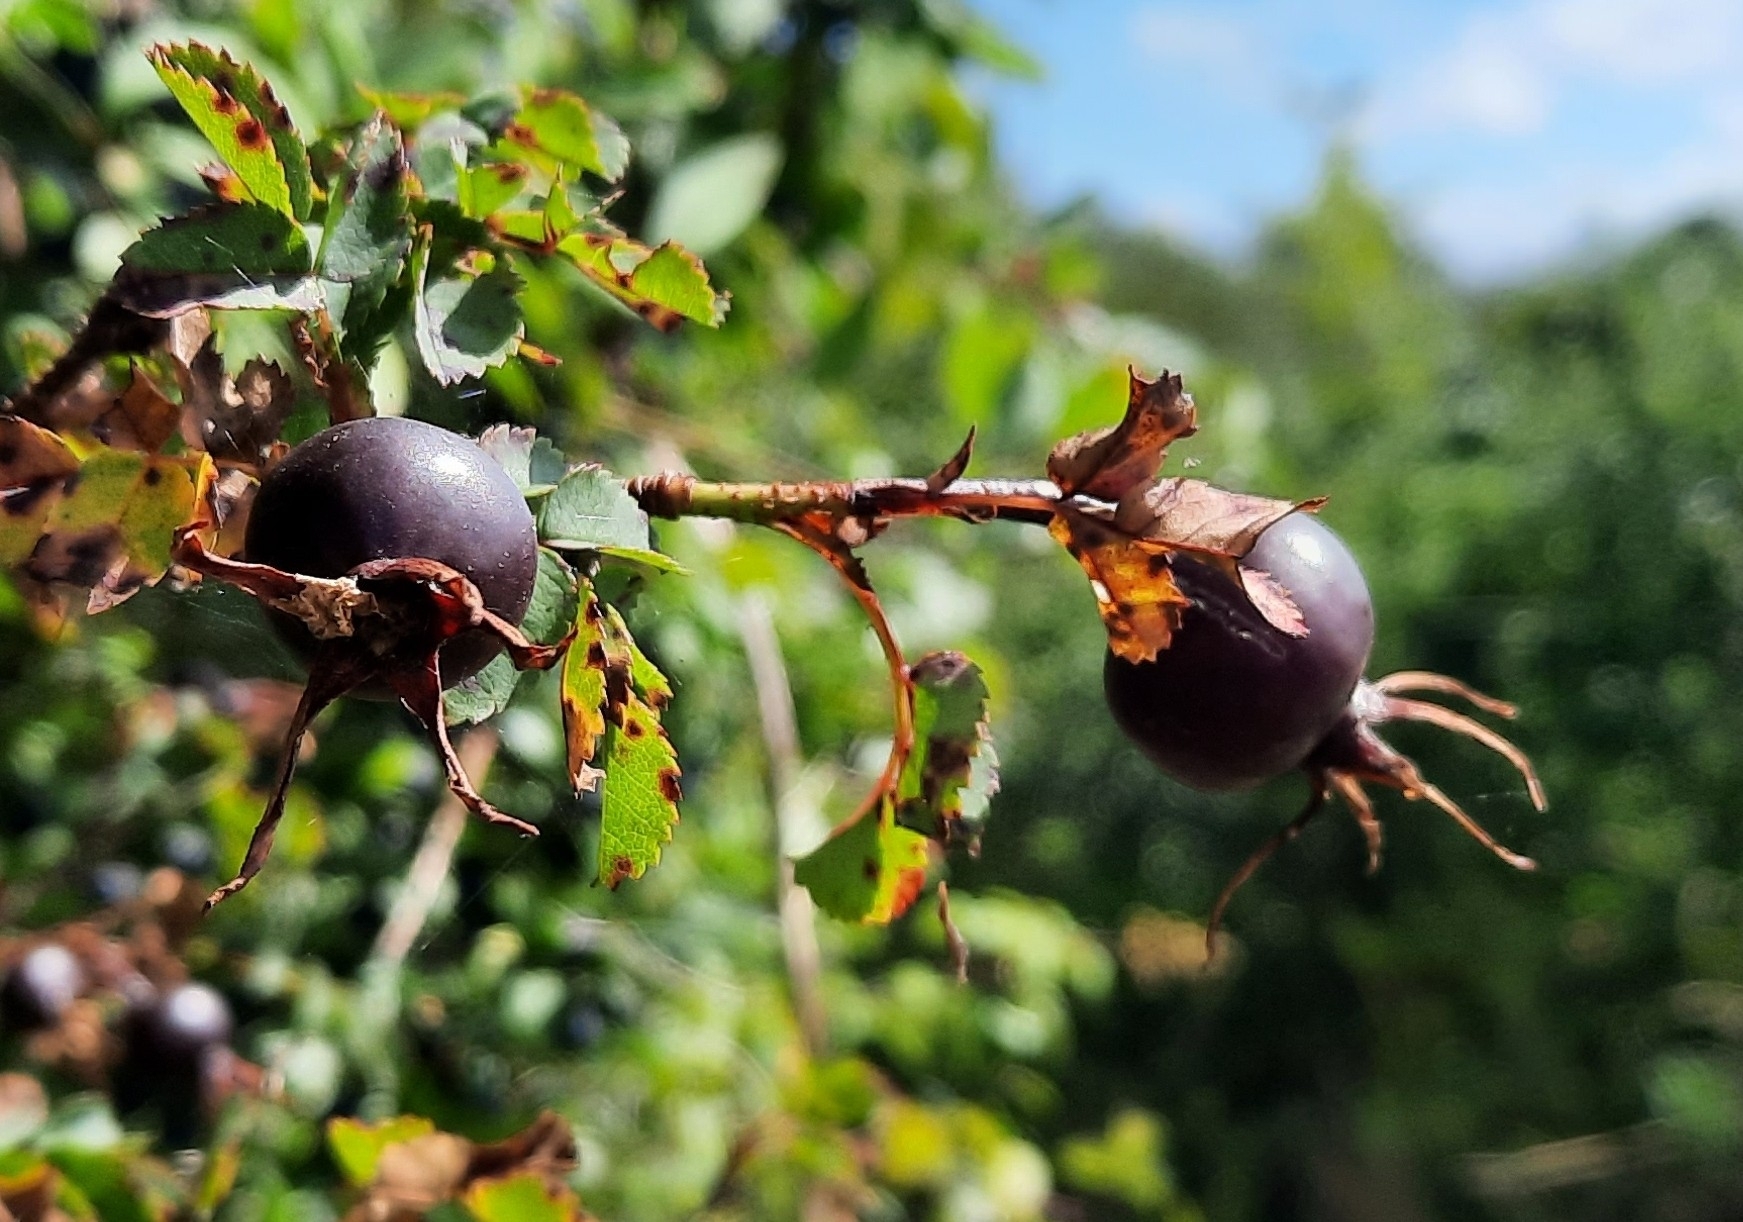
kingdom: Plantae
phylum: Tracheophyta
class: Magnoliopsida
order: Rosales
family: Rosaceae
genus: Rosa
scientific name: Rosa spinosissima
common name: Burnet rose
